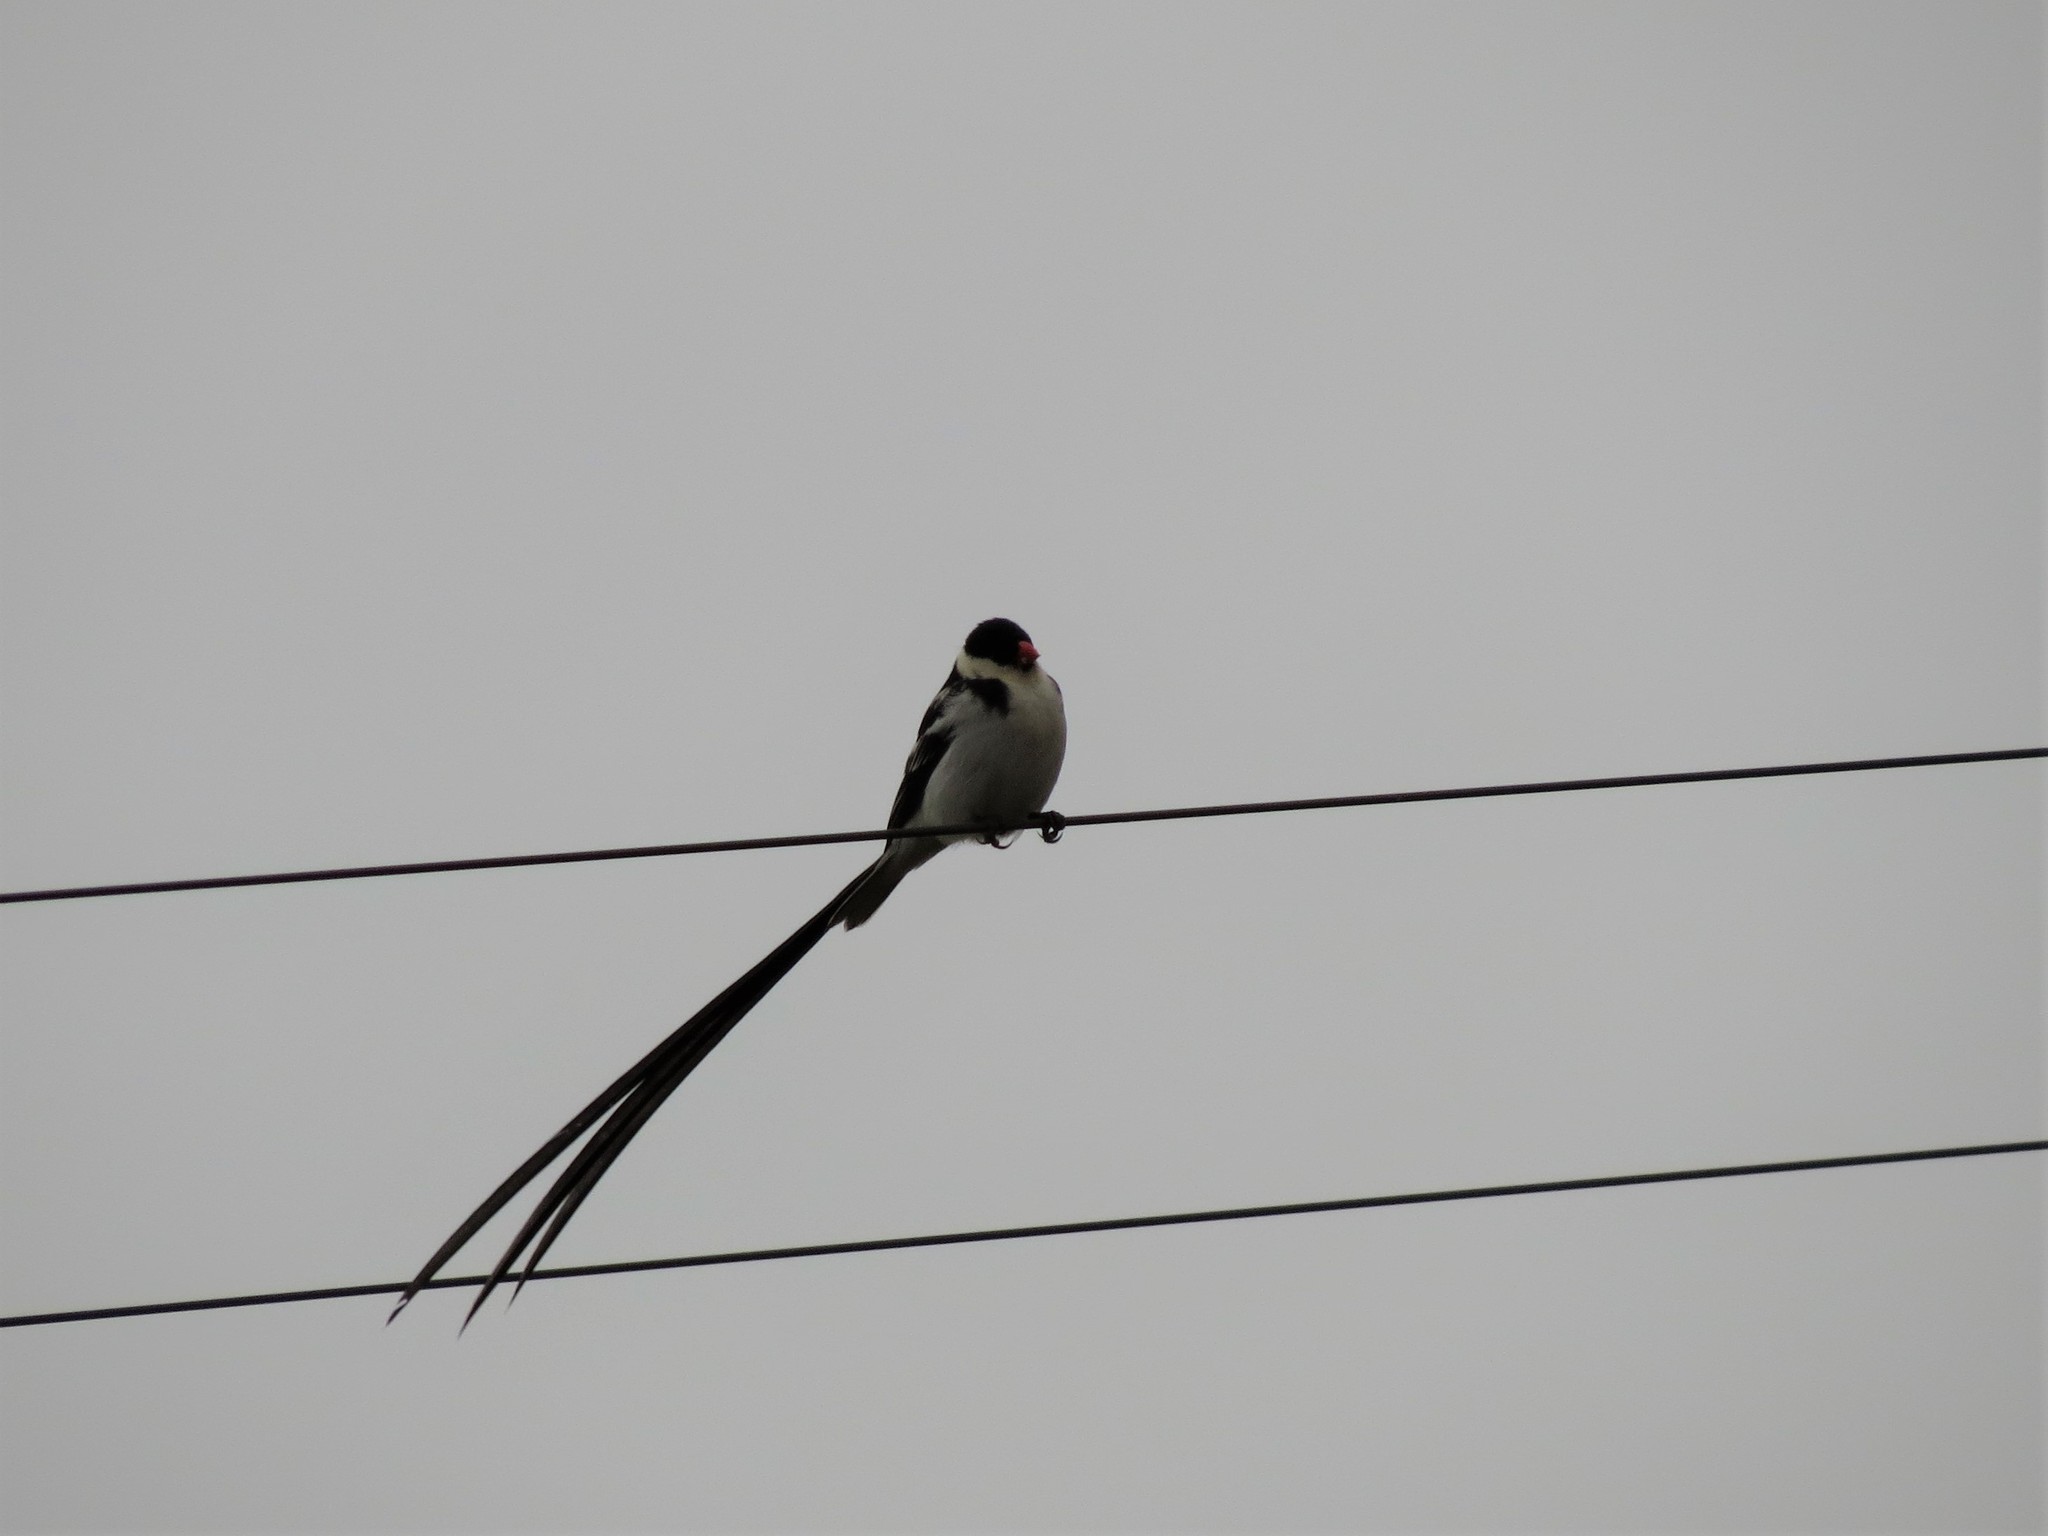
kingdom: Animalia
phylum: Chordata
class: Aves
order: Passeriformes
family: Viduidae
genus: Vidua
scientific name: Vidua macroura
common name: Pin-tailed whydah
